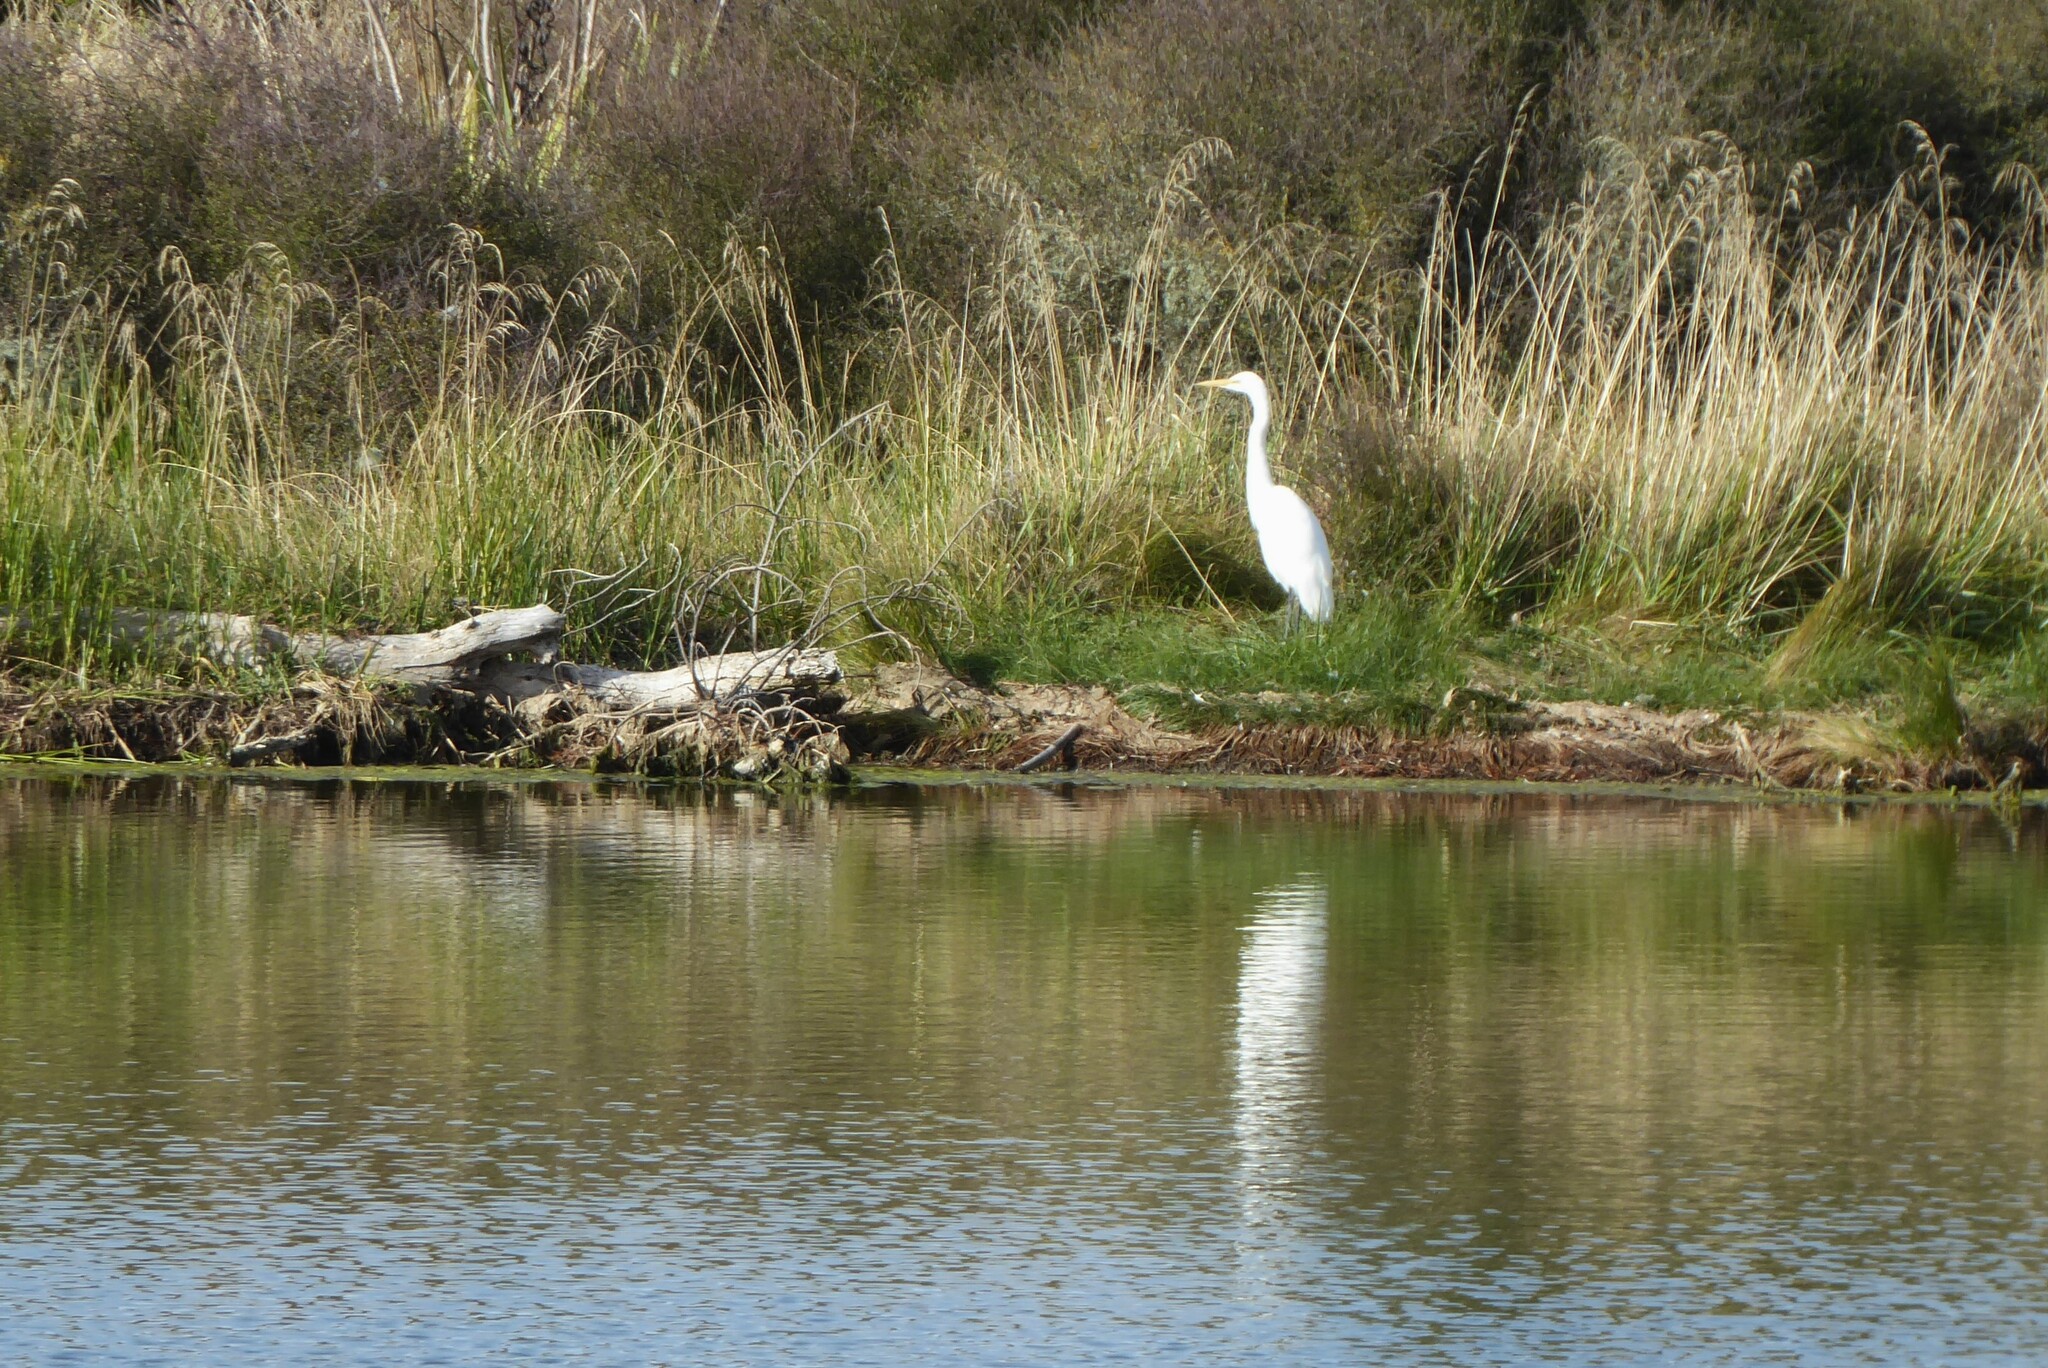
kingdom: Animalia
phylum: Chordata
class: Aves
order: Pelecaniformes
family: Ardeidae
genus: Ardea
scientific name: Ardea modesta
